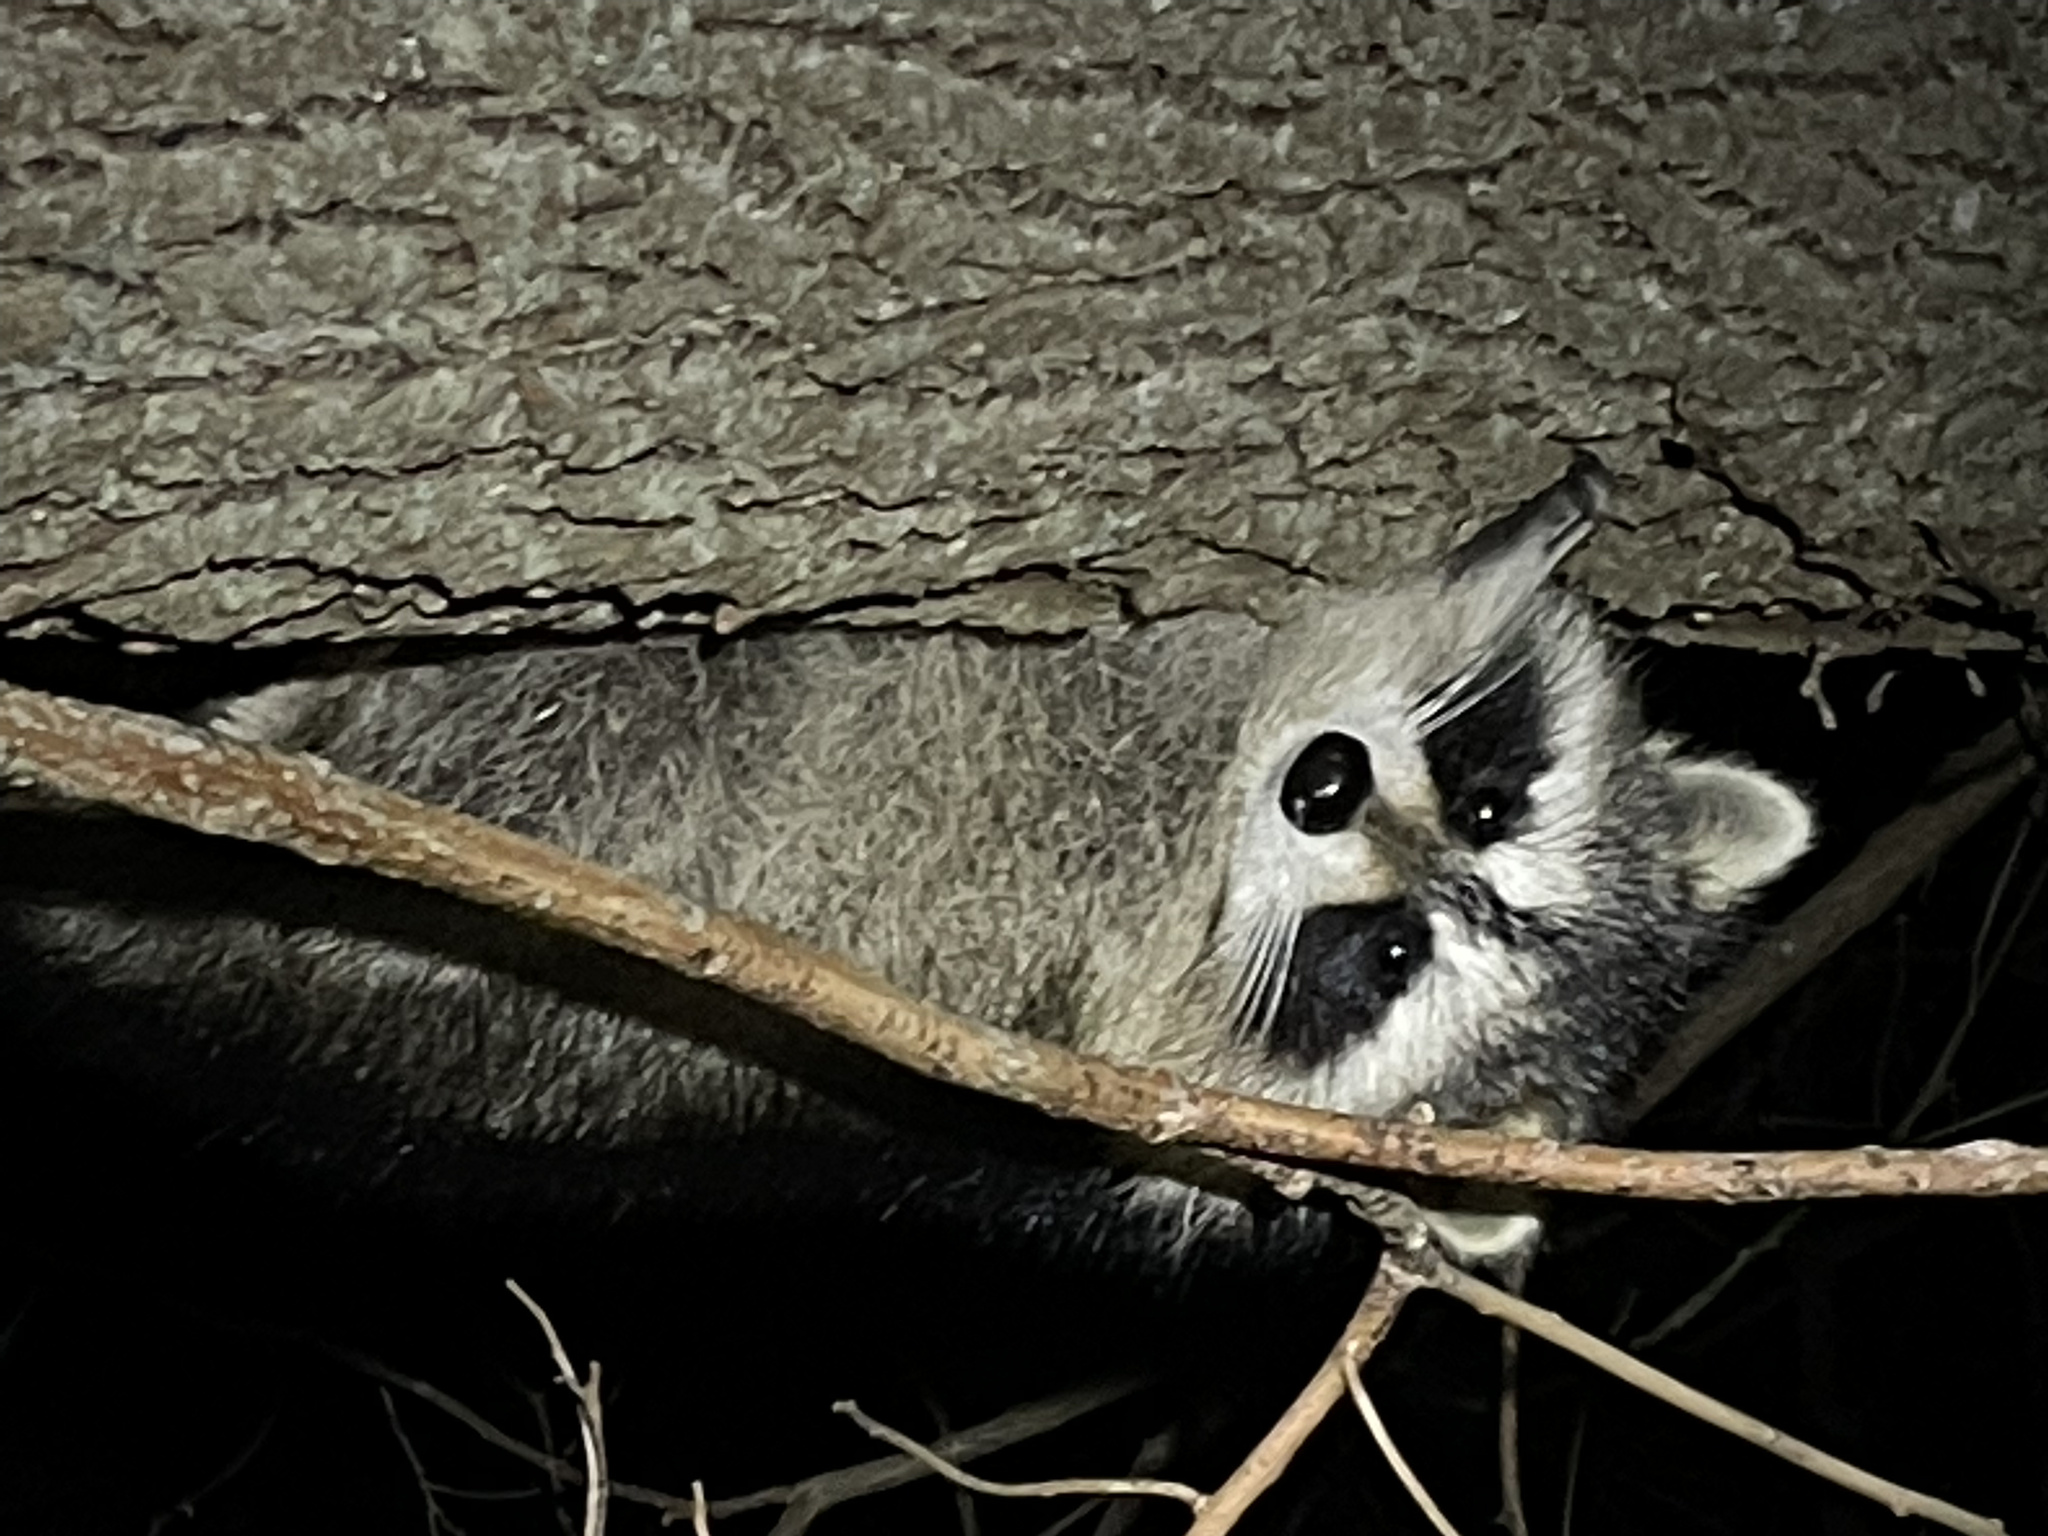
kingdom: Animalia
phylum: Chordata
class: Mammalia
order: Carnivora
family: Procyonidae
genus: Procyon
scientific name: Procyon lotor
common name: Raccoon
